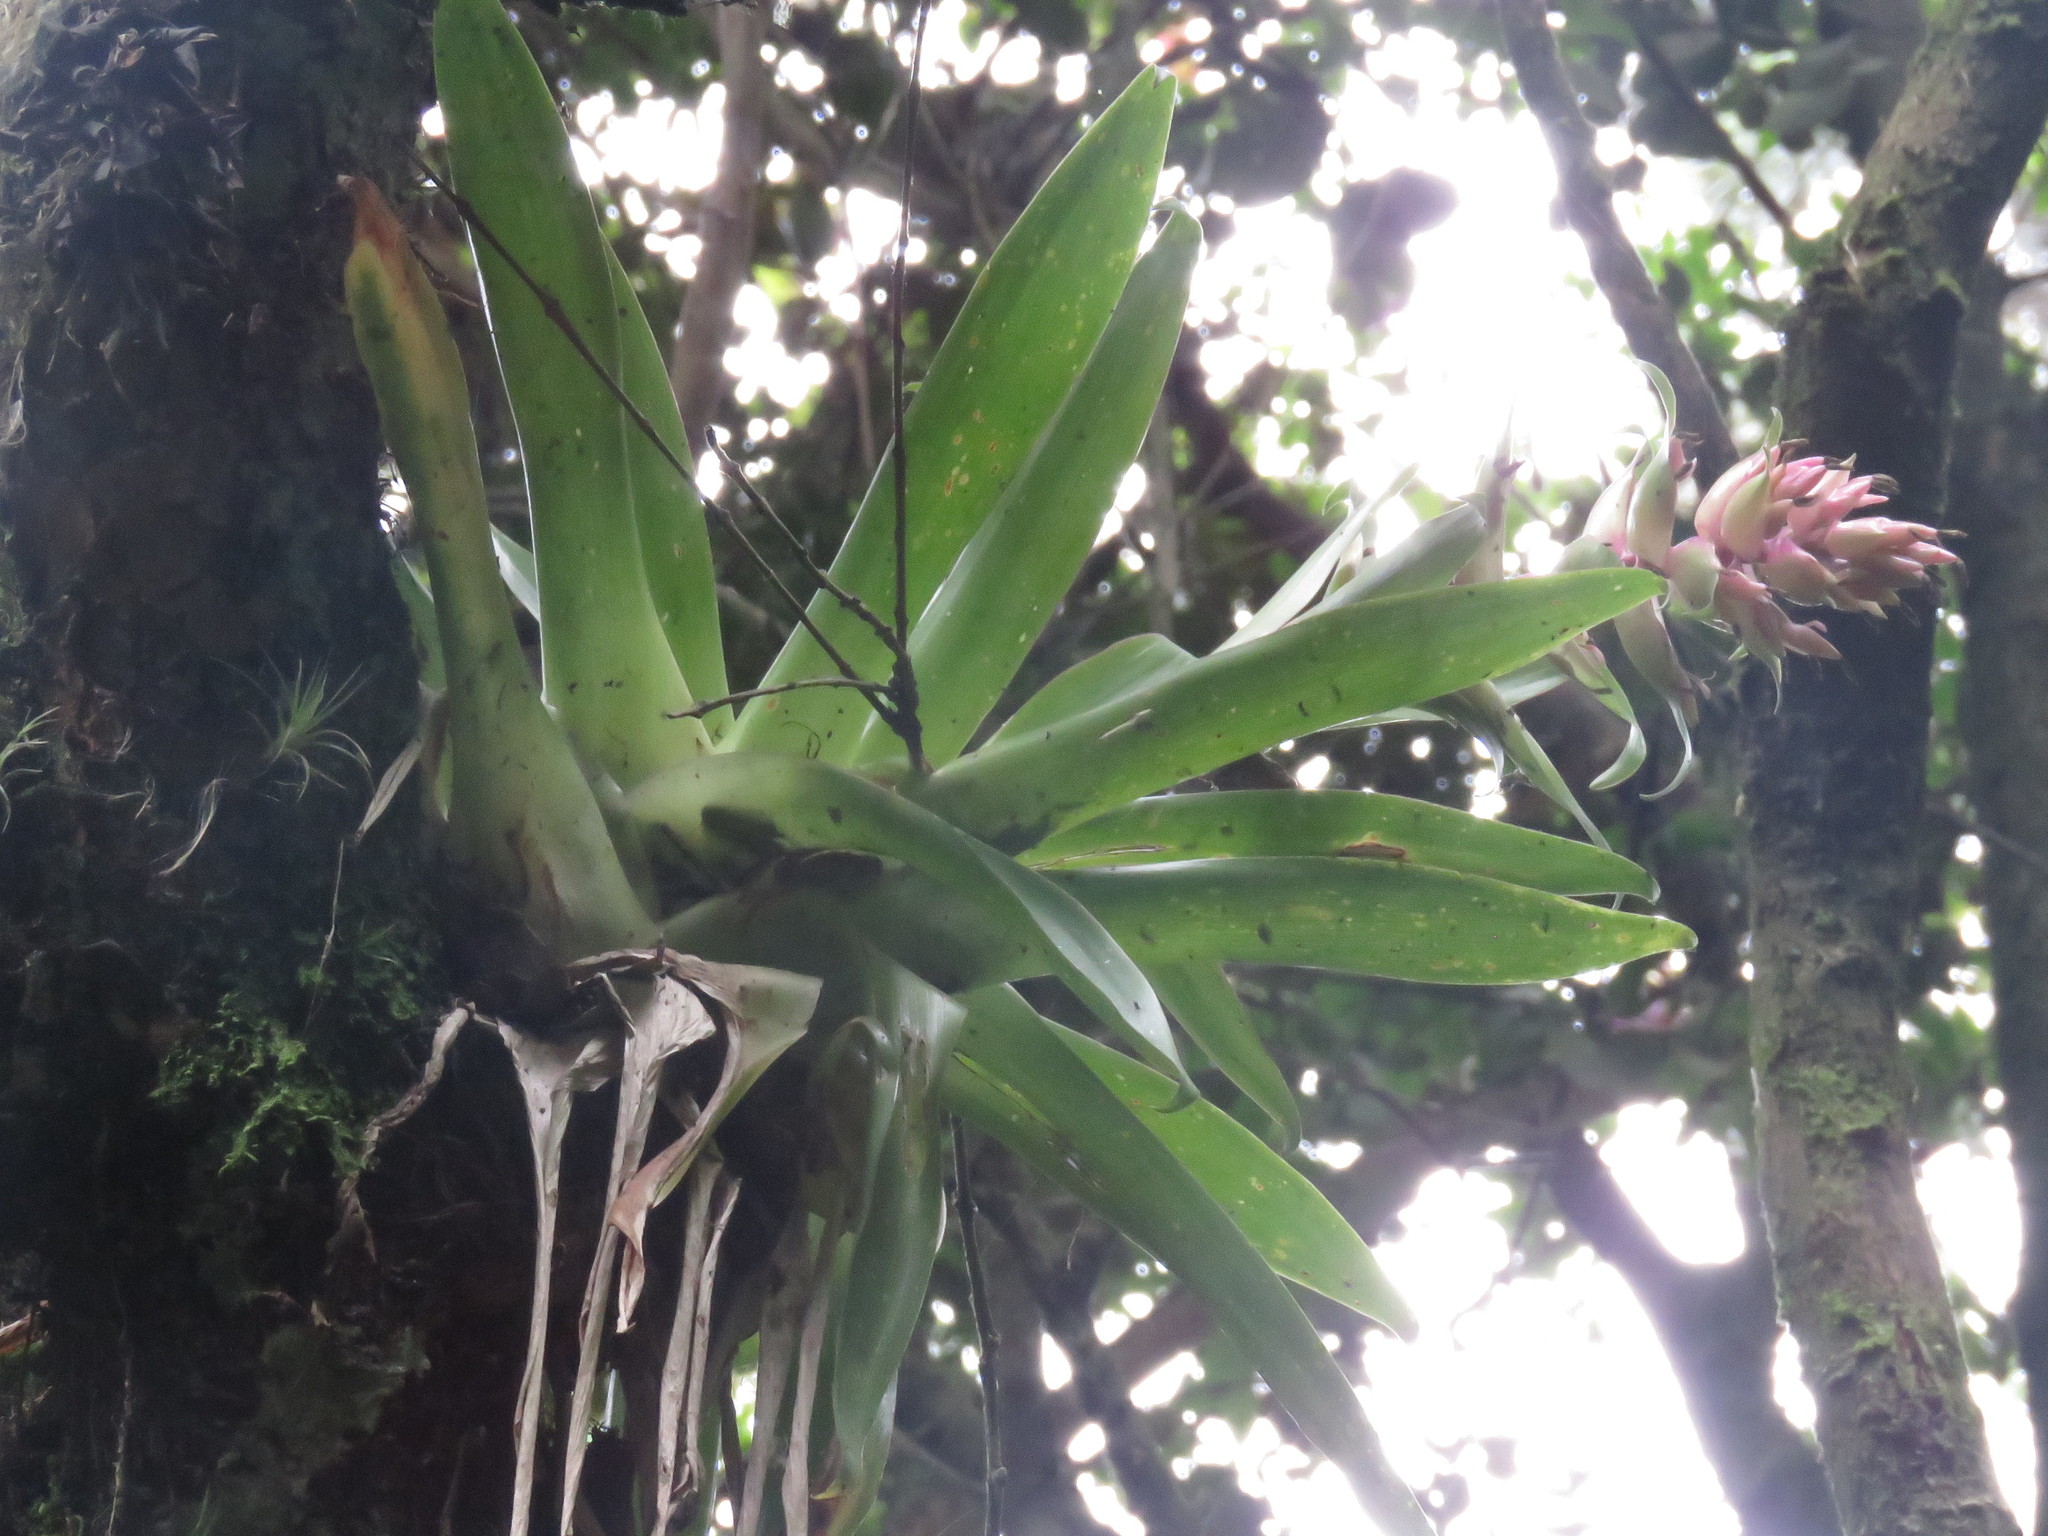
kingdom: Plantae
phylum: Tracheophyta
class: Liliopsida
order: Poales
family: Bromeliaceae
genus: Tillandsia
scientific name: Tillandsia biflora
